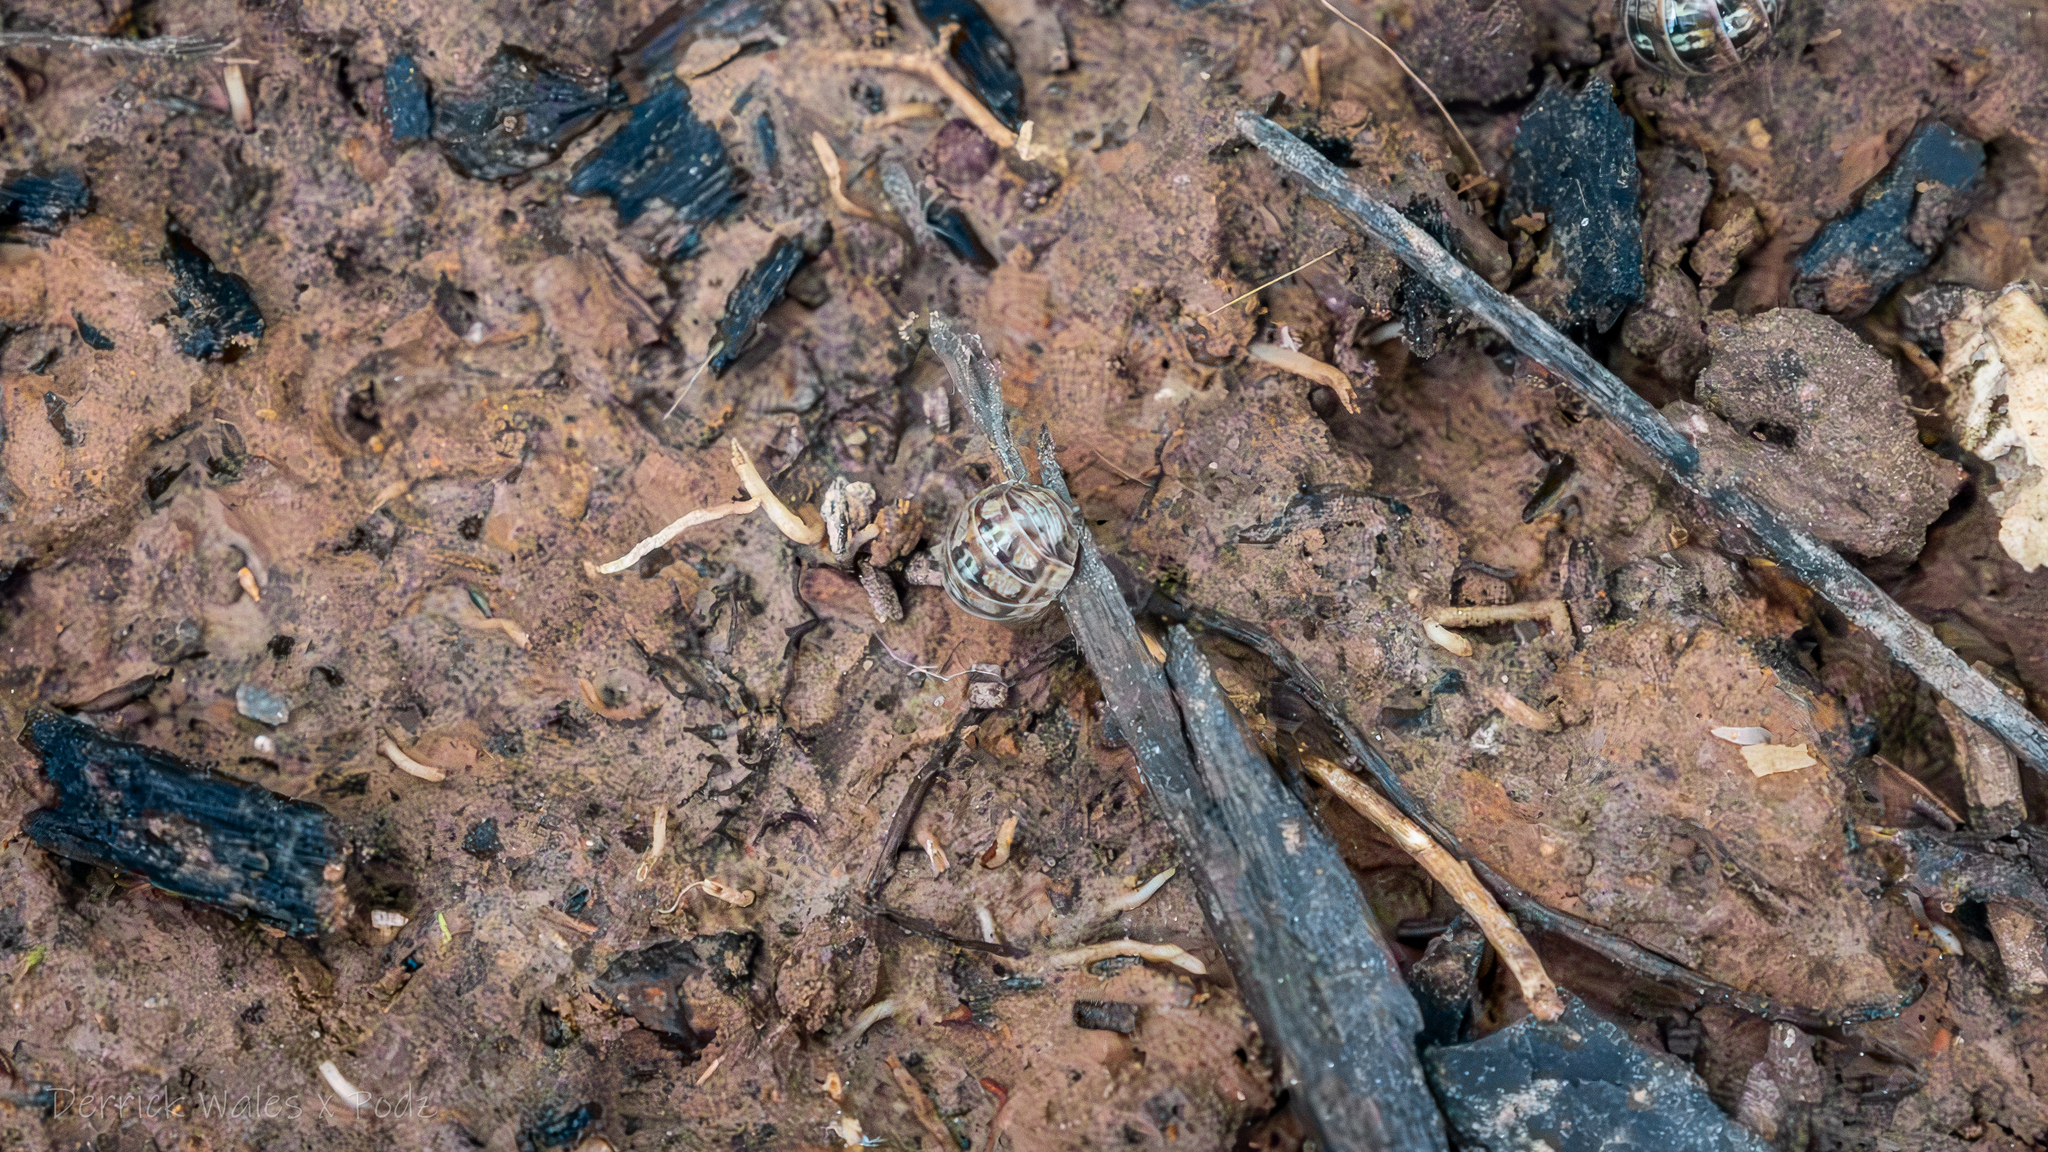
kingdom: Animalia
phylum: Arthropoda
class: Malacostraca
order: Isopoda
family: Armadillidiidae
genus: Armadillidium
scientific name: Armadillidium vulgare
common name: Common pill woodlouse
